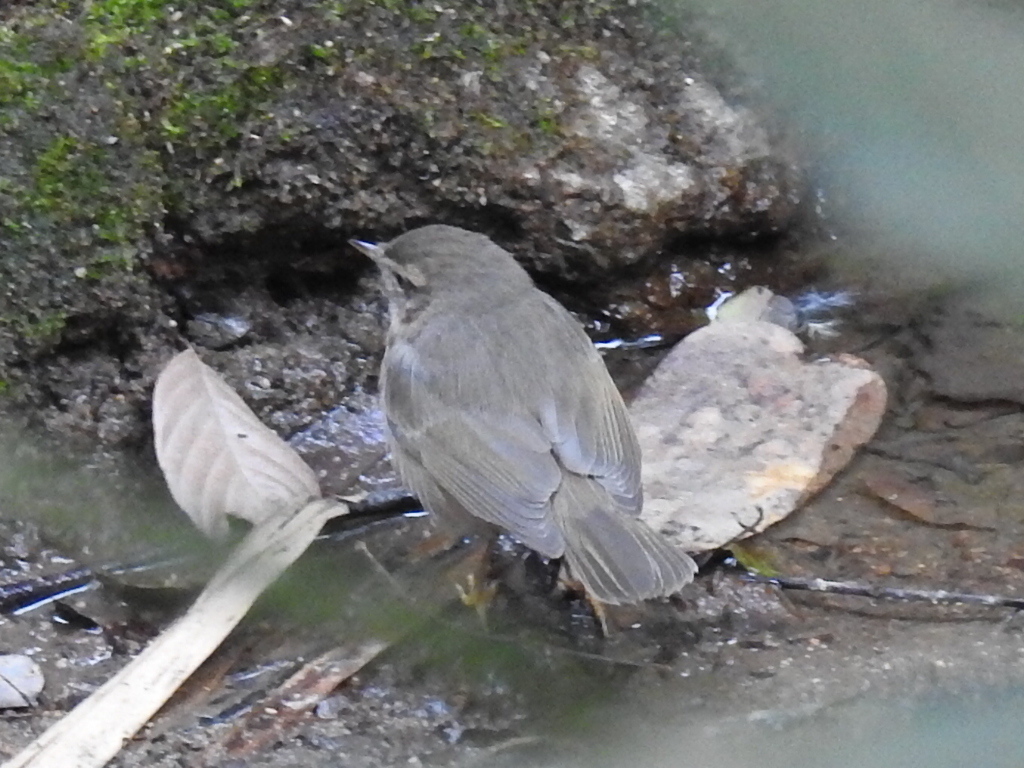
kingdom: Animalia
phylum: Chordata
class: Aves
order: Passeriformes
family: Phylloscopidae
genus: Phylloscopus
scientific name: Phylloscopus fuscatus
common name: Dusky warbler
